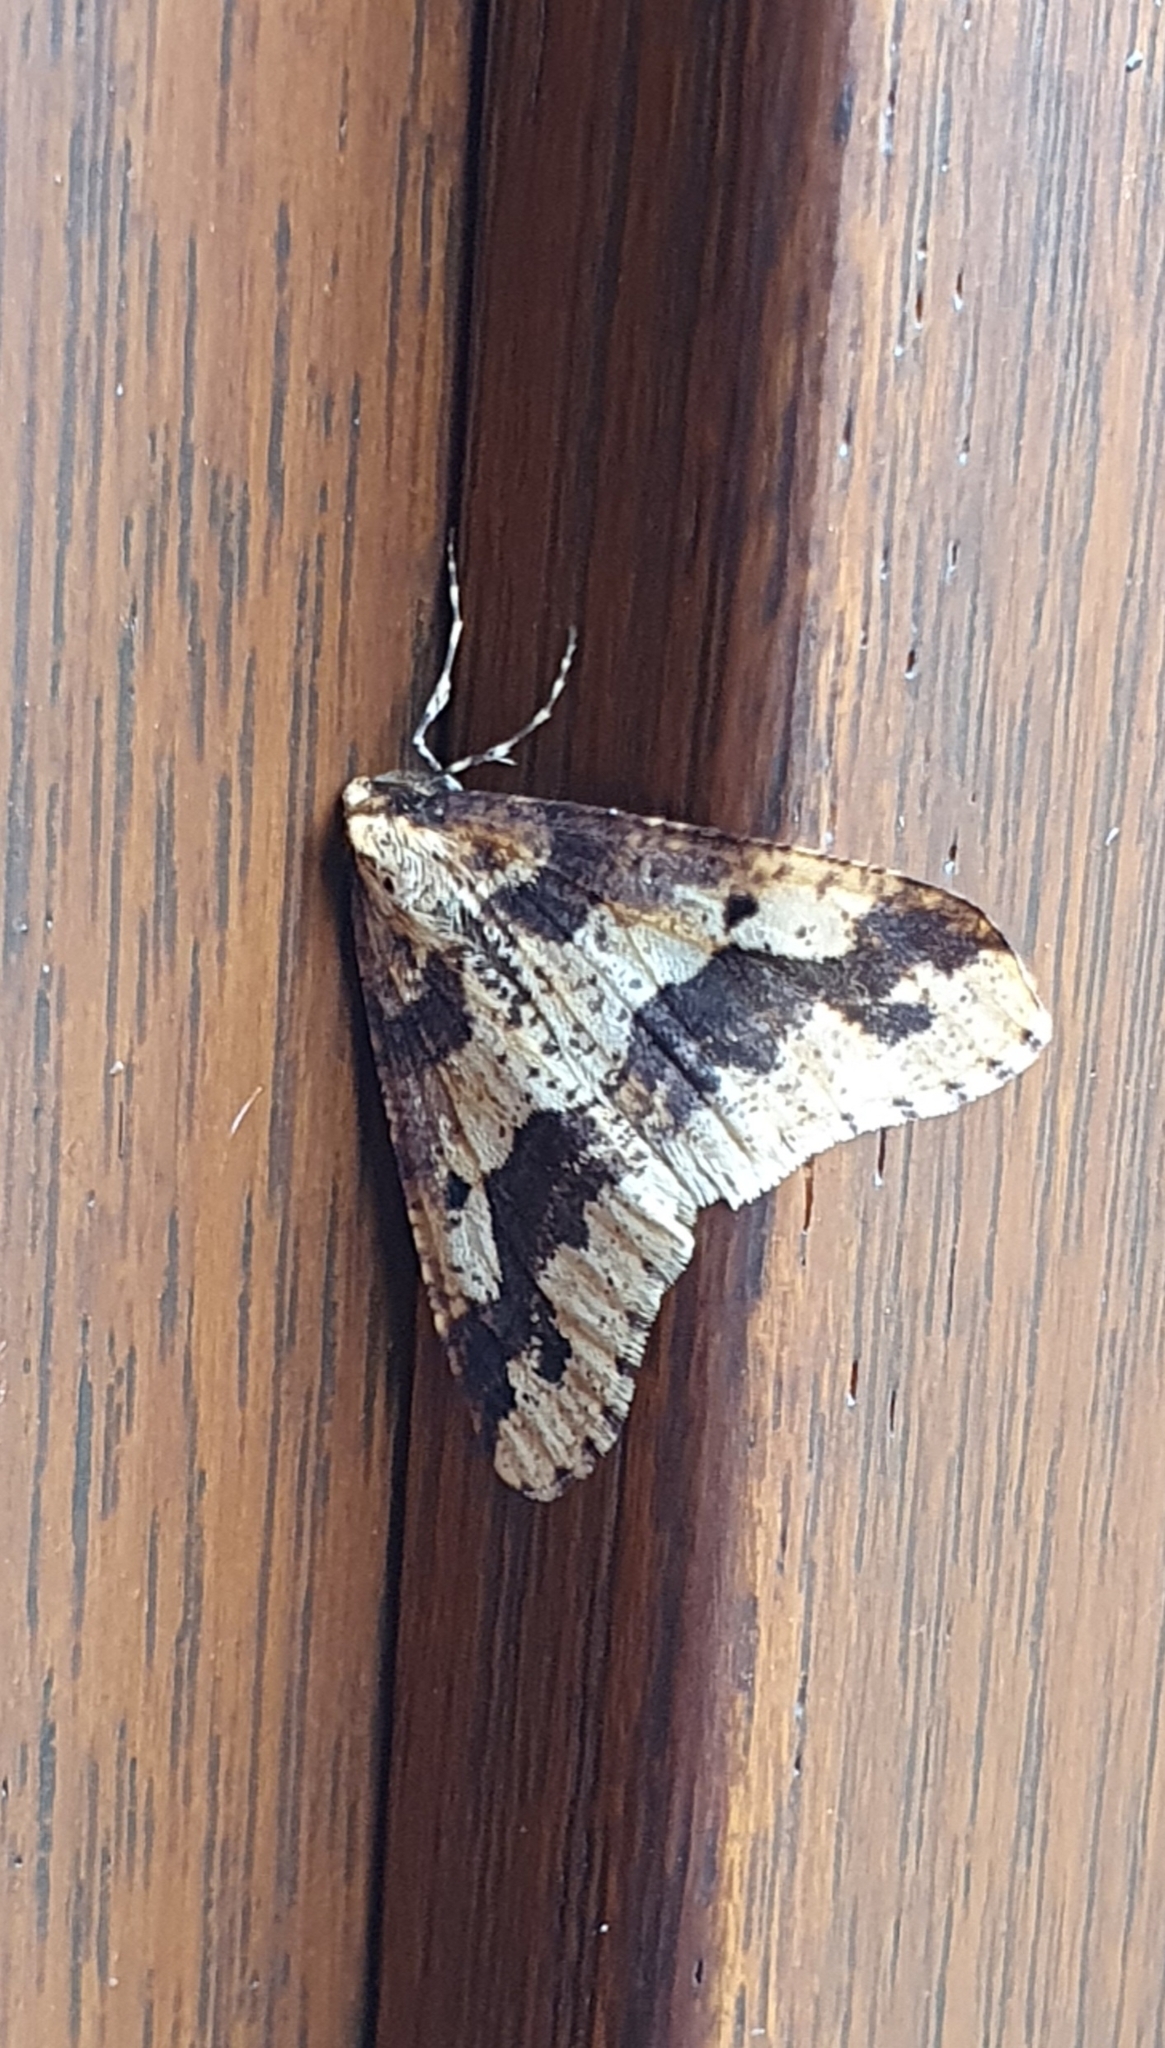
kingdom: Animalia
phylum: Arthropoda
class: Insecta
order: Lepidoptera
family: Geometridae
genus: Erannis
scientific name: Erannis defoliaria
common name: Mottled umber
